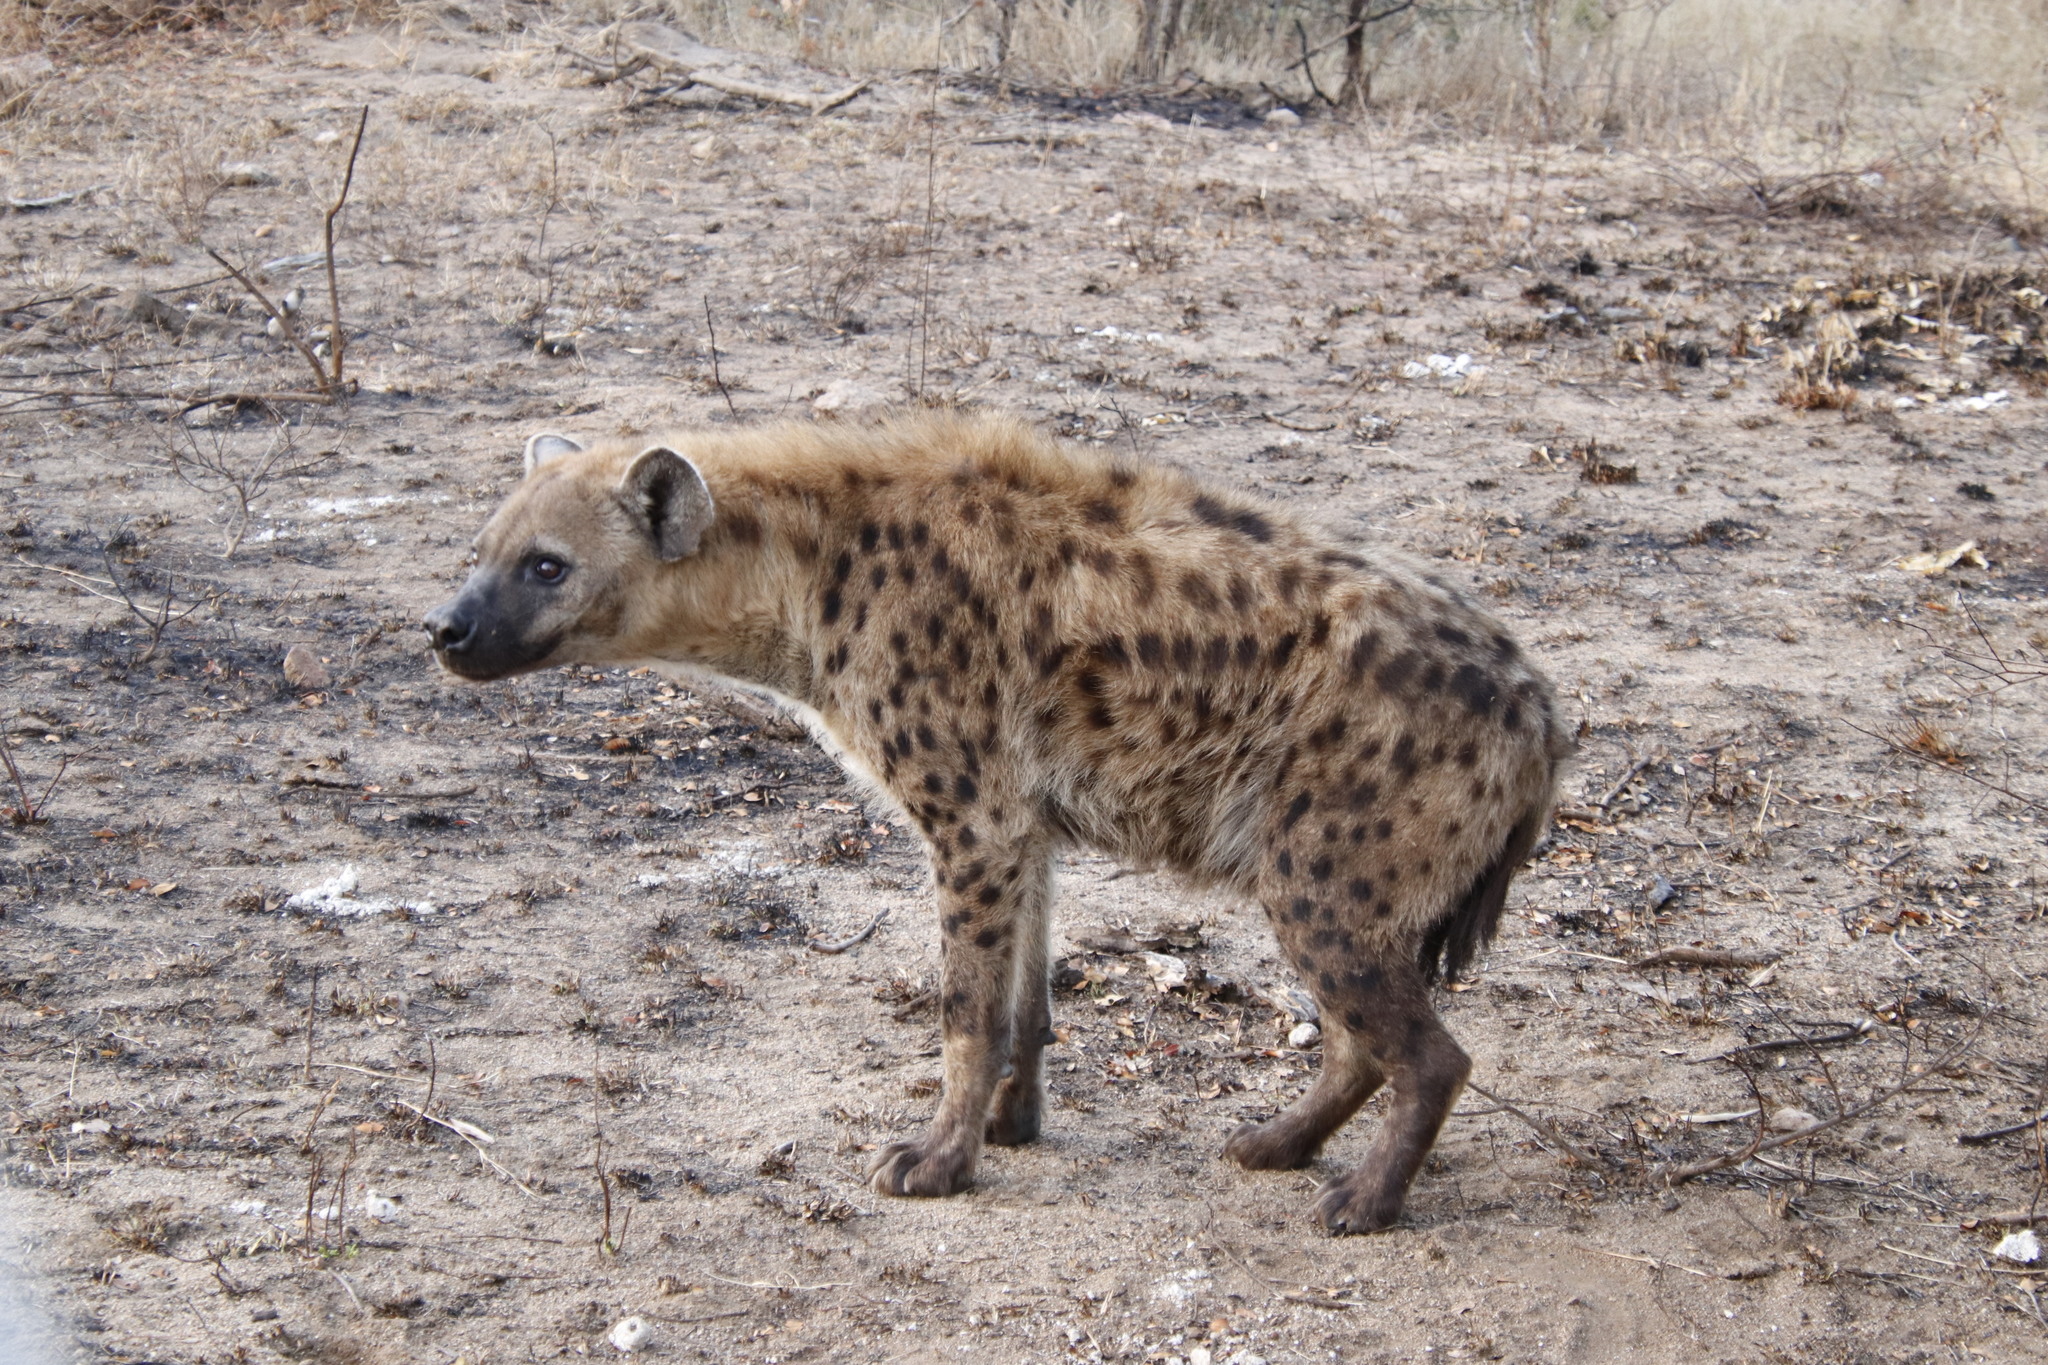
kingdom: Animalia
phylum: Chordata
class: Mammalia
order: Carnivora
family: Hyaenidae
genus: Crocuta
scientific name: Crocuta crocuta
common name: Spotted hyaena
